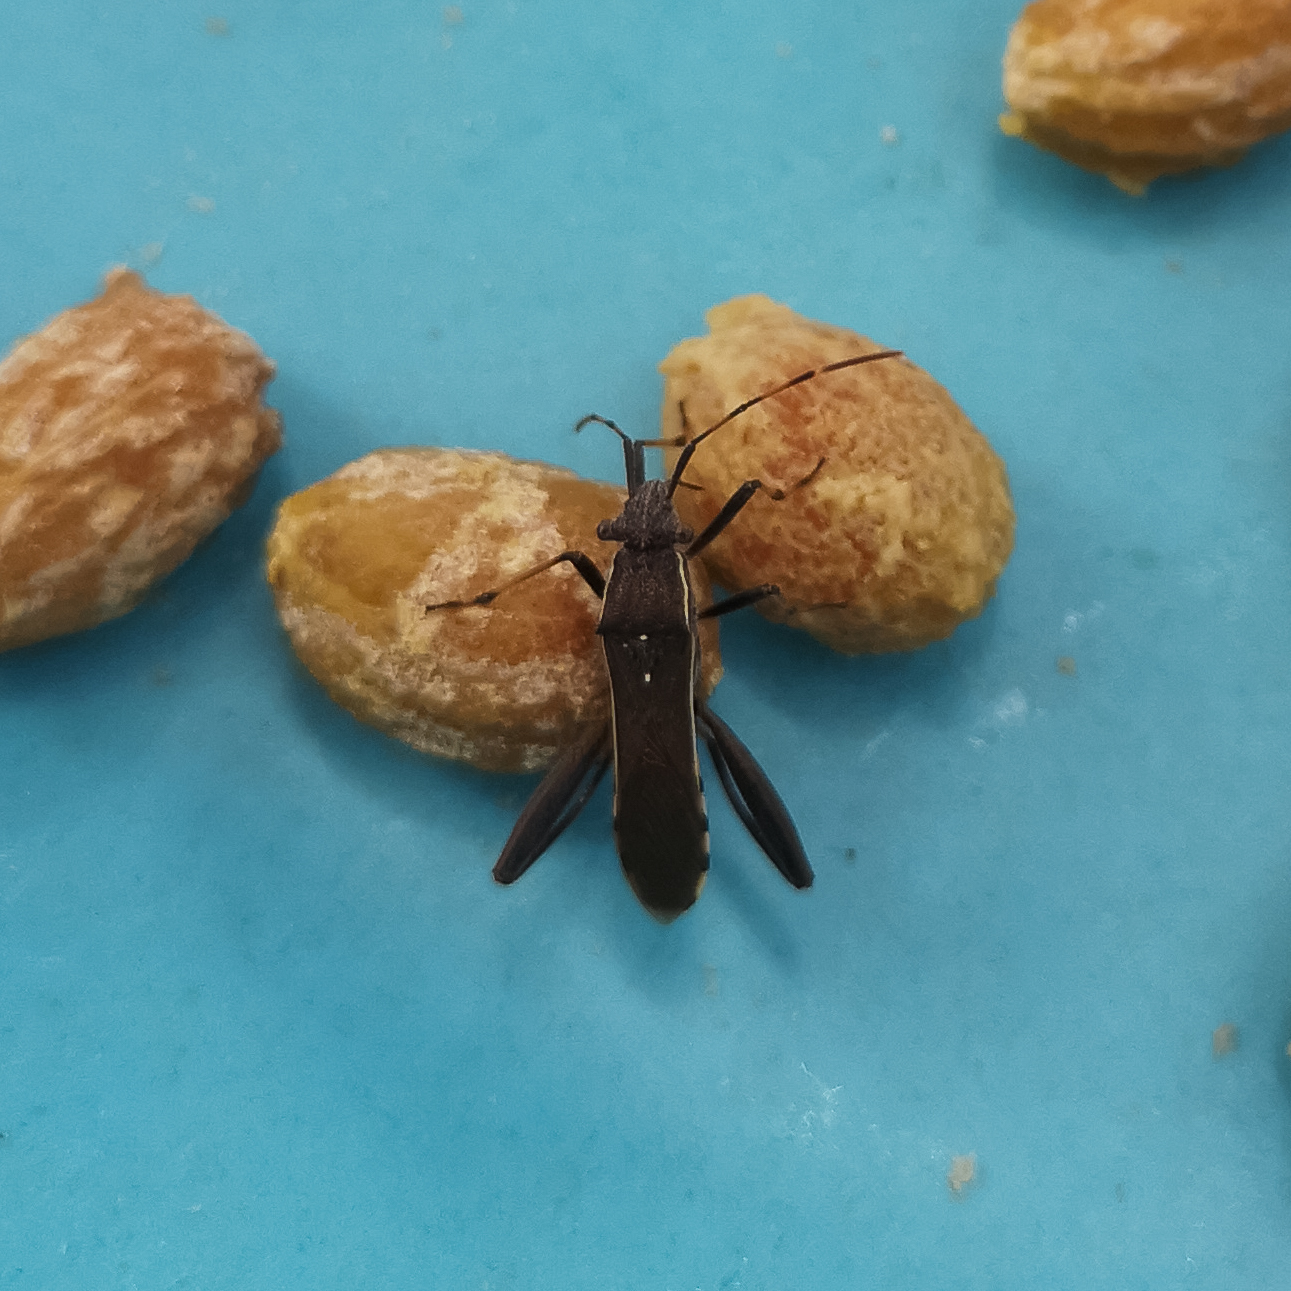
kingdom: Animalia
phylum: Arthropoda
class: Insecta
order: Hemiptera
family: Alydidae
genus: Camptopus
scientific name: Camptopus lateralis
